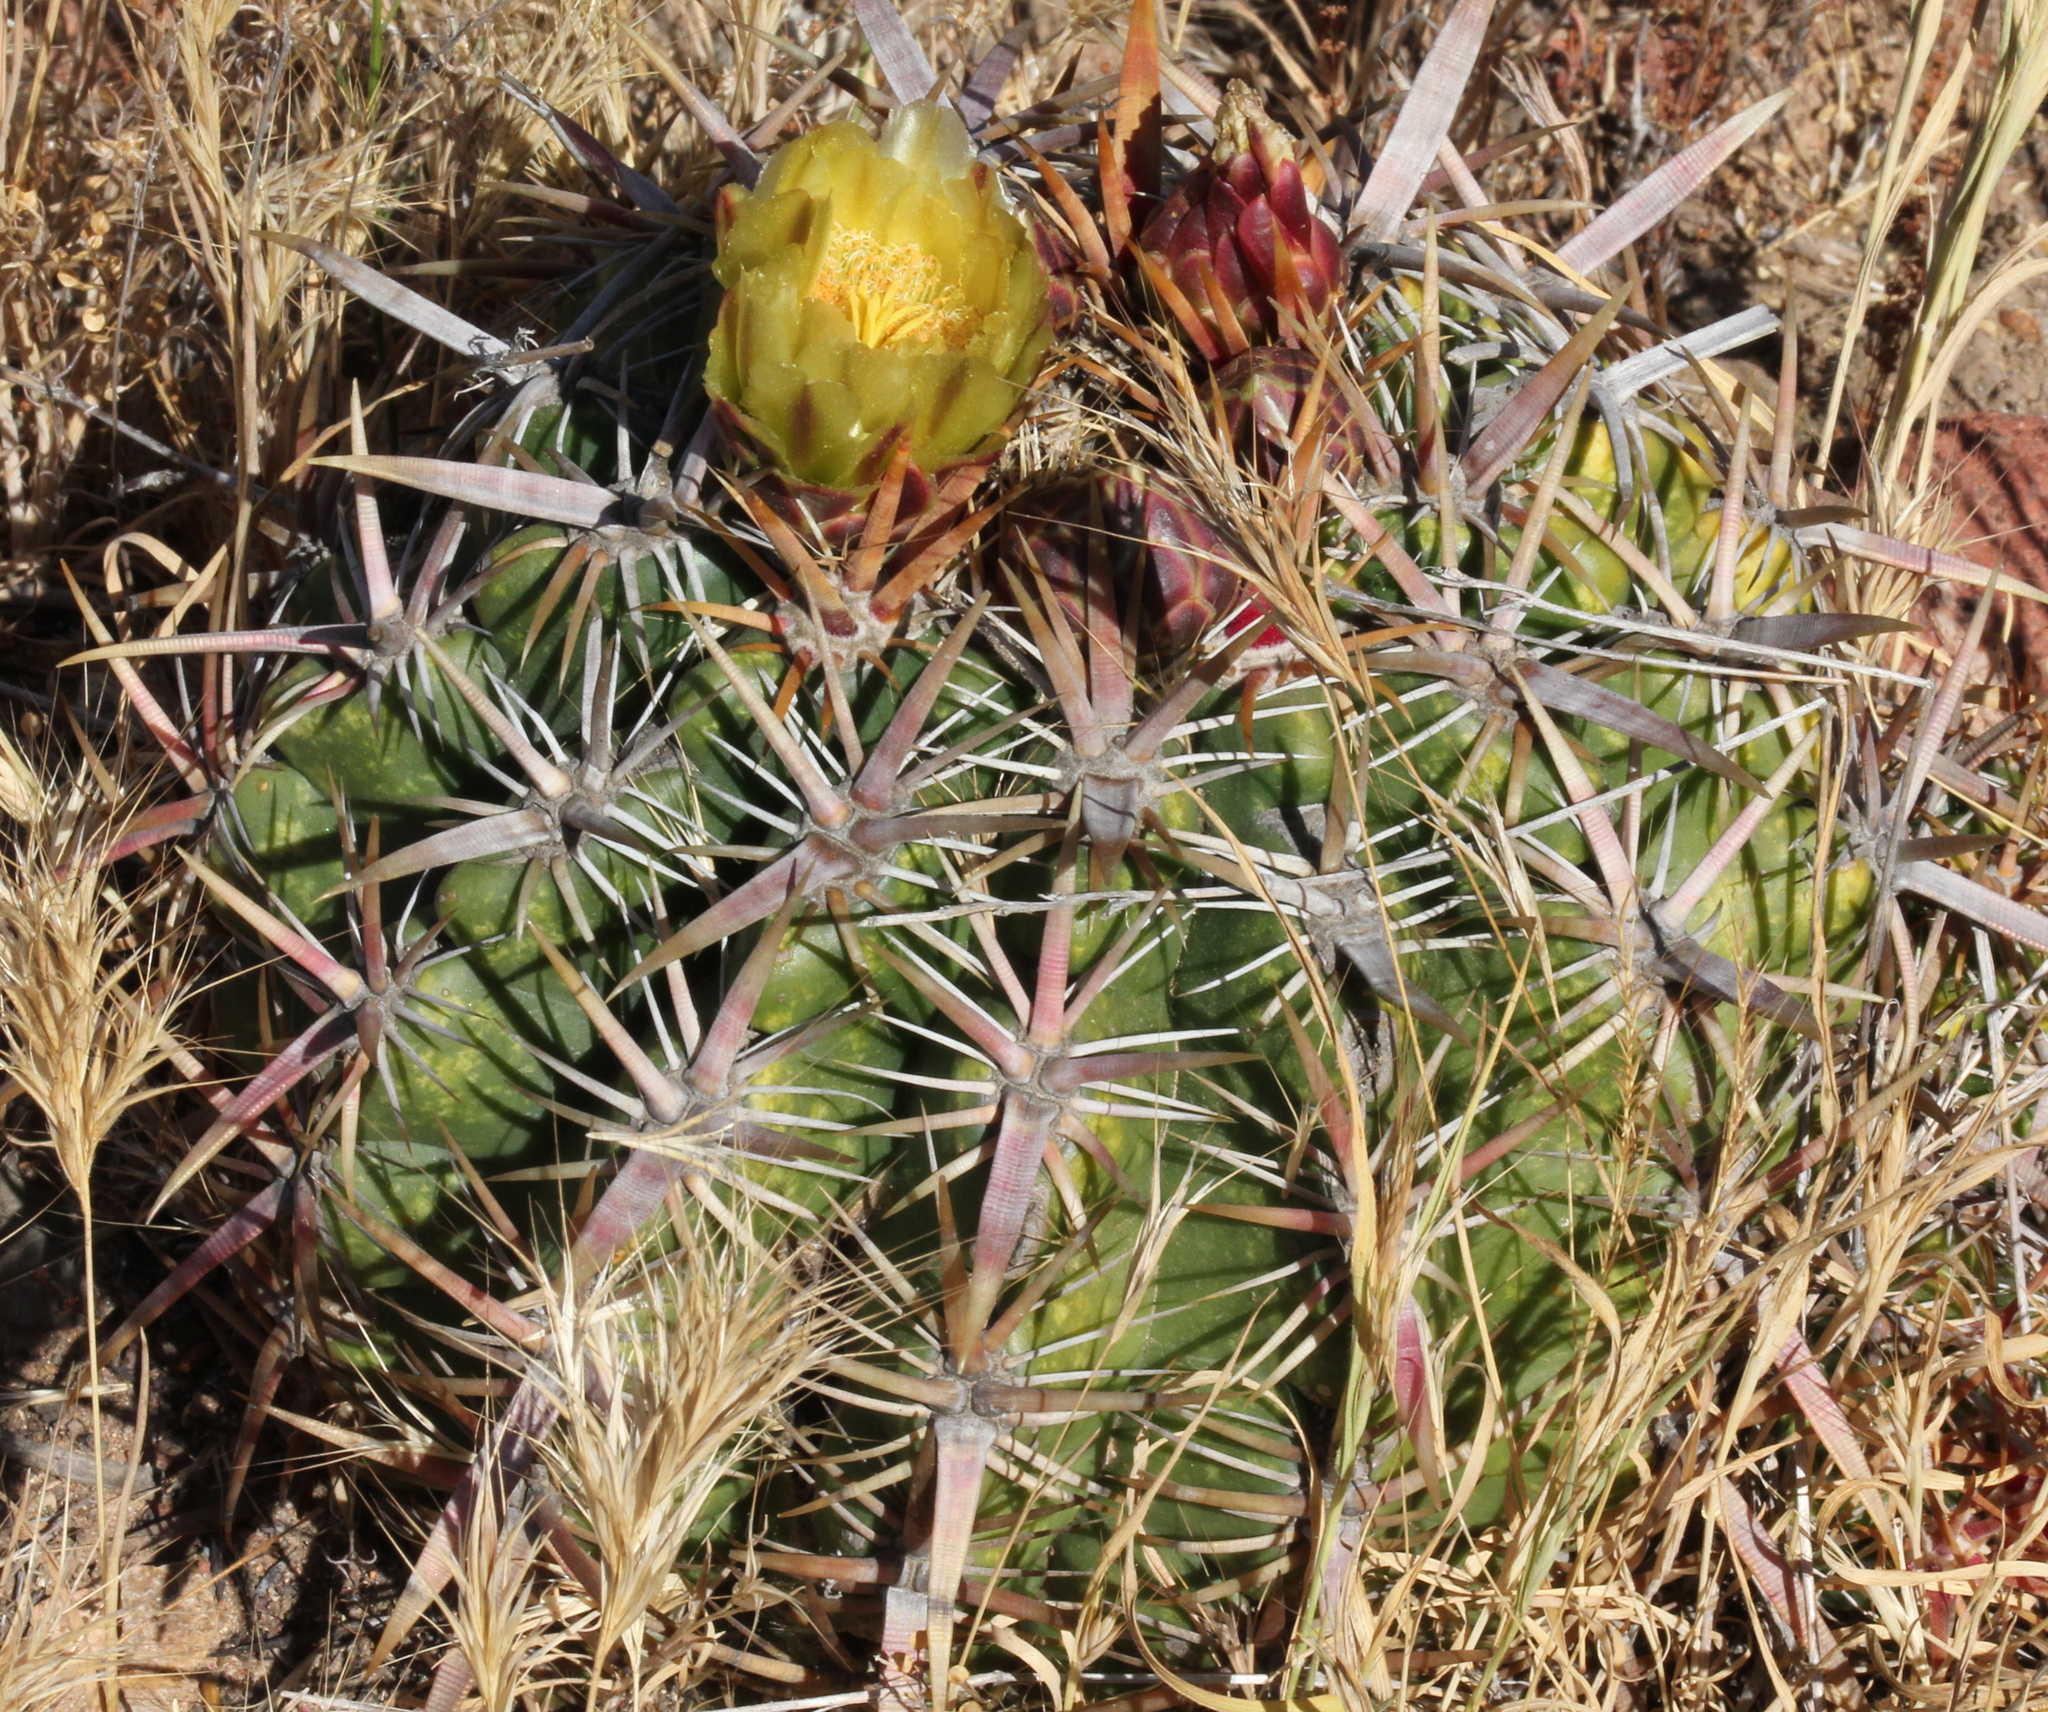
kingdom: Plantae
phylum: Tracheophyta
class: Magnoliopsida
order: Caryophyllales
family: Cactaceae
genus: Ferocactus
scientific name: Ferocactus viridescens
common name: San diego barrel cactus
